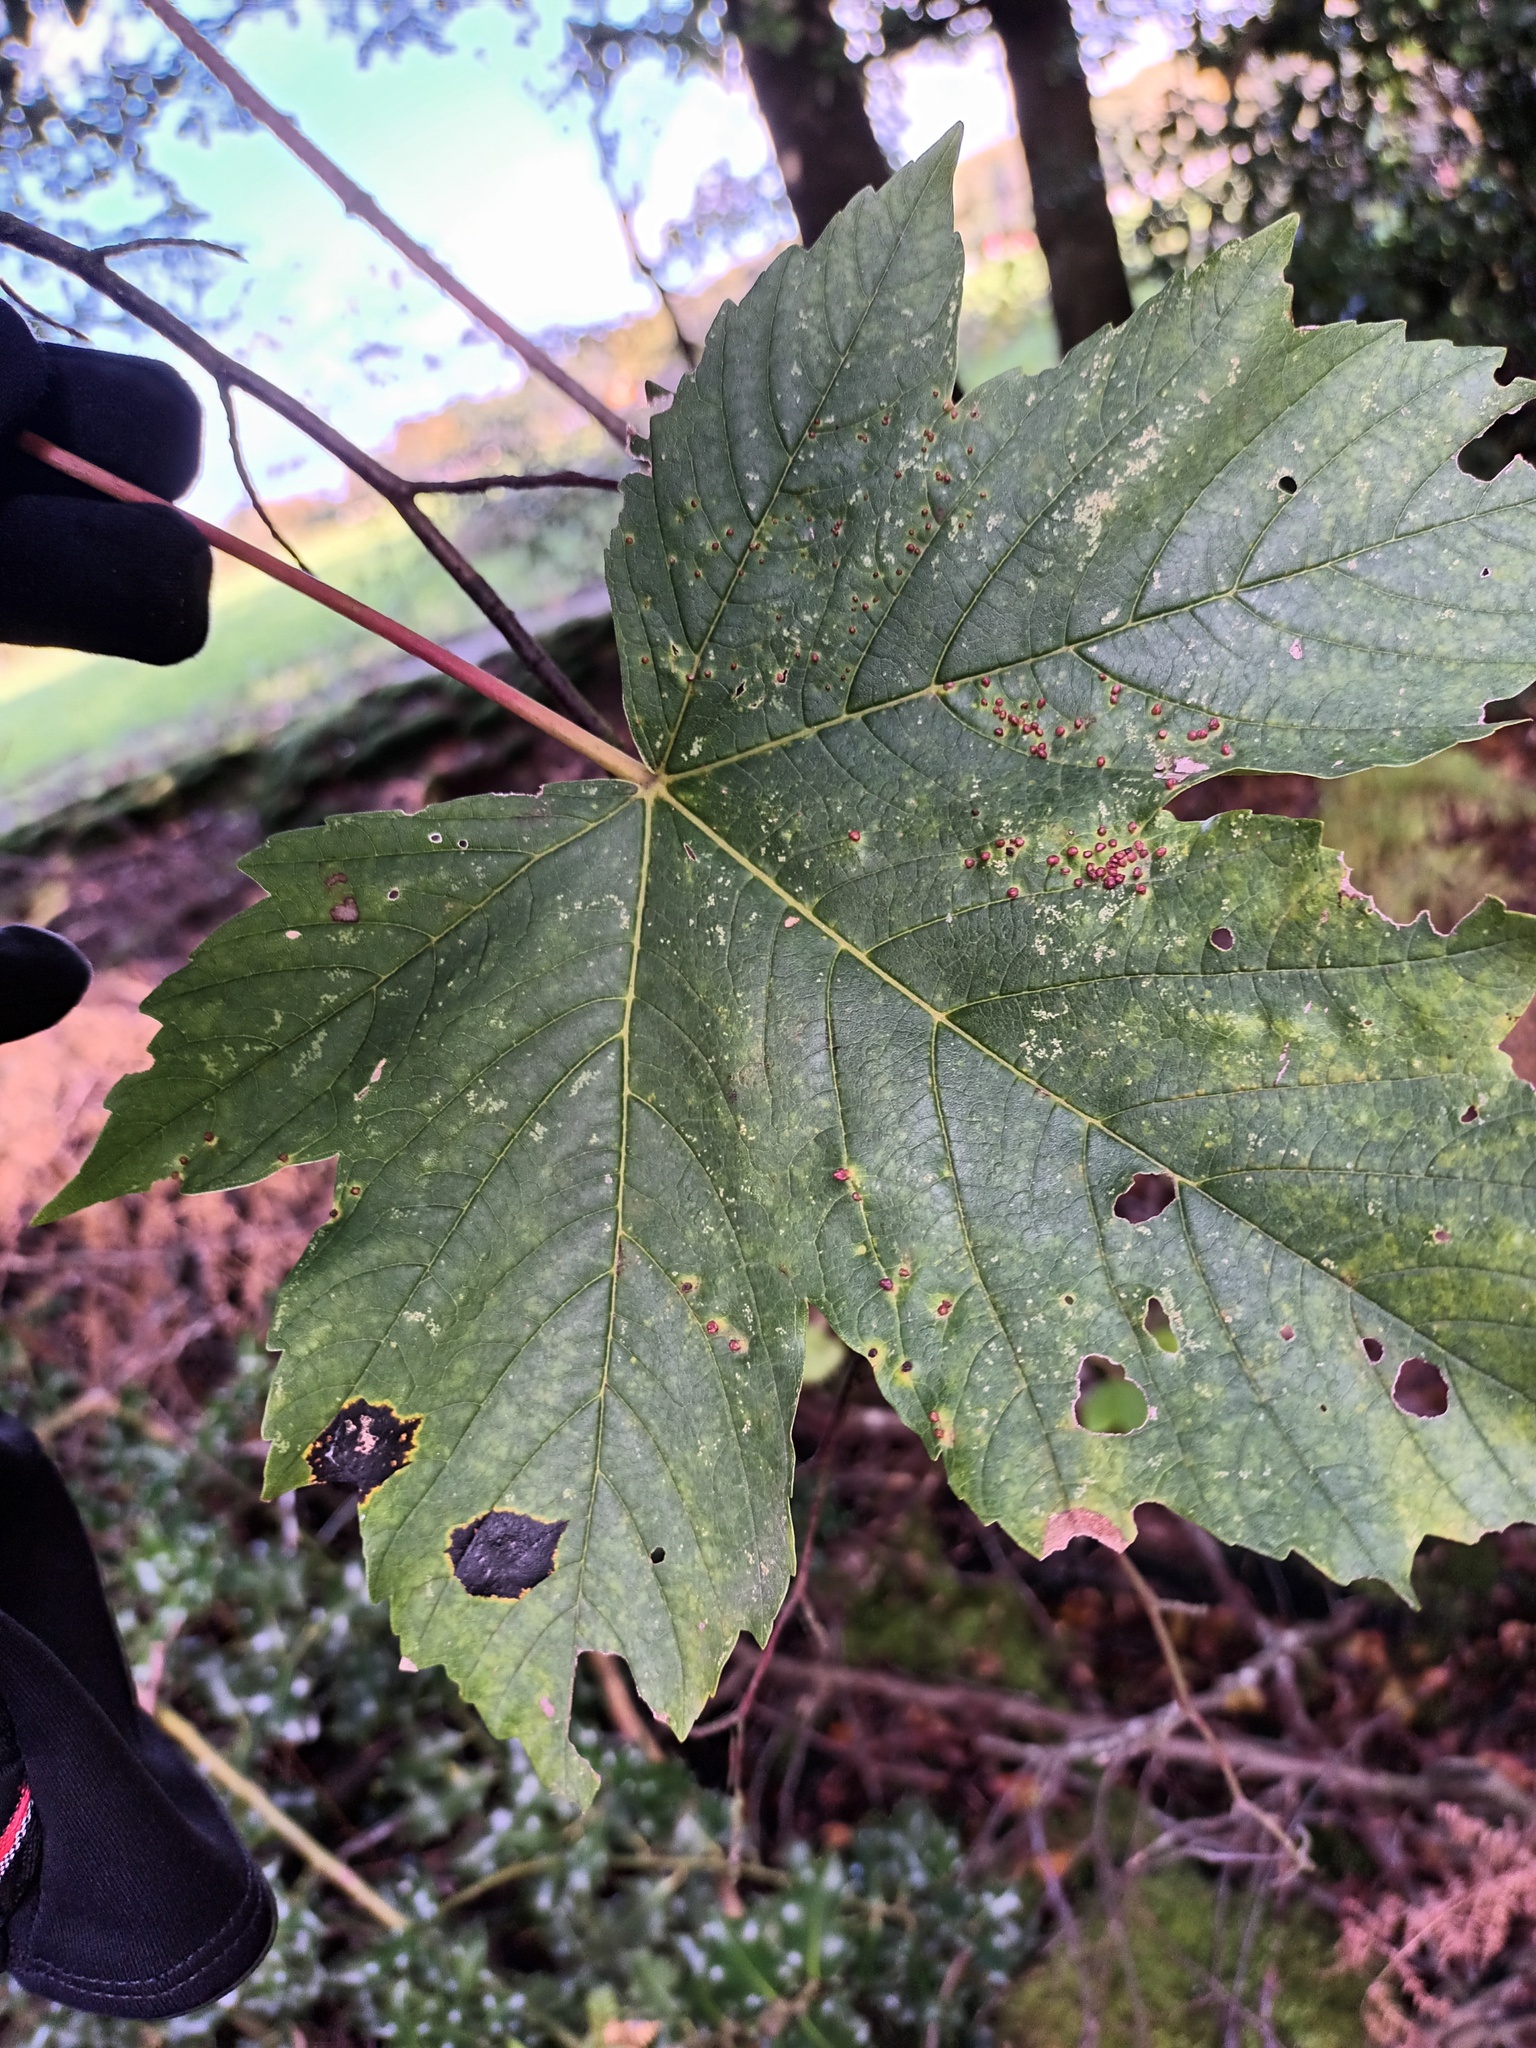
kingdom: Fungi
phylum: Ascomycota
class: Leotiomycetes
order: Rhytismatales
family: Rhytismataceae
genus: Rhytisma
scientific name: Rhytisma acerinum
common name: European tar spot
